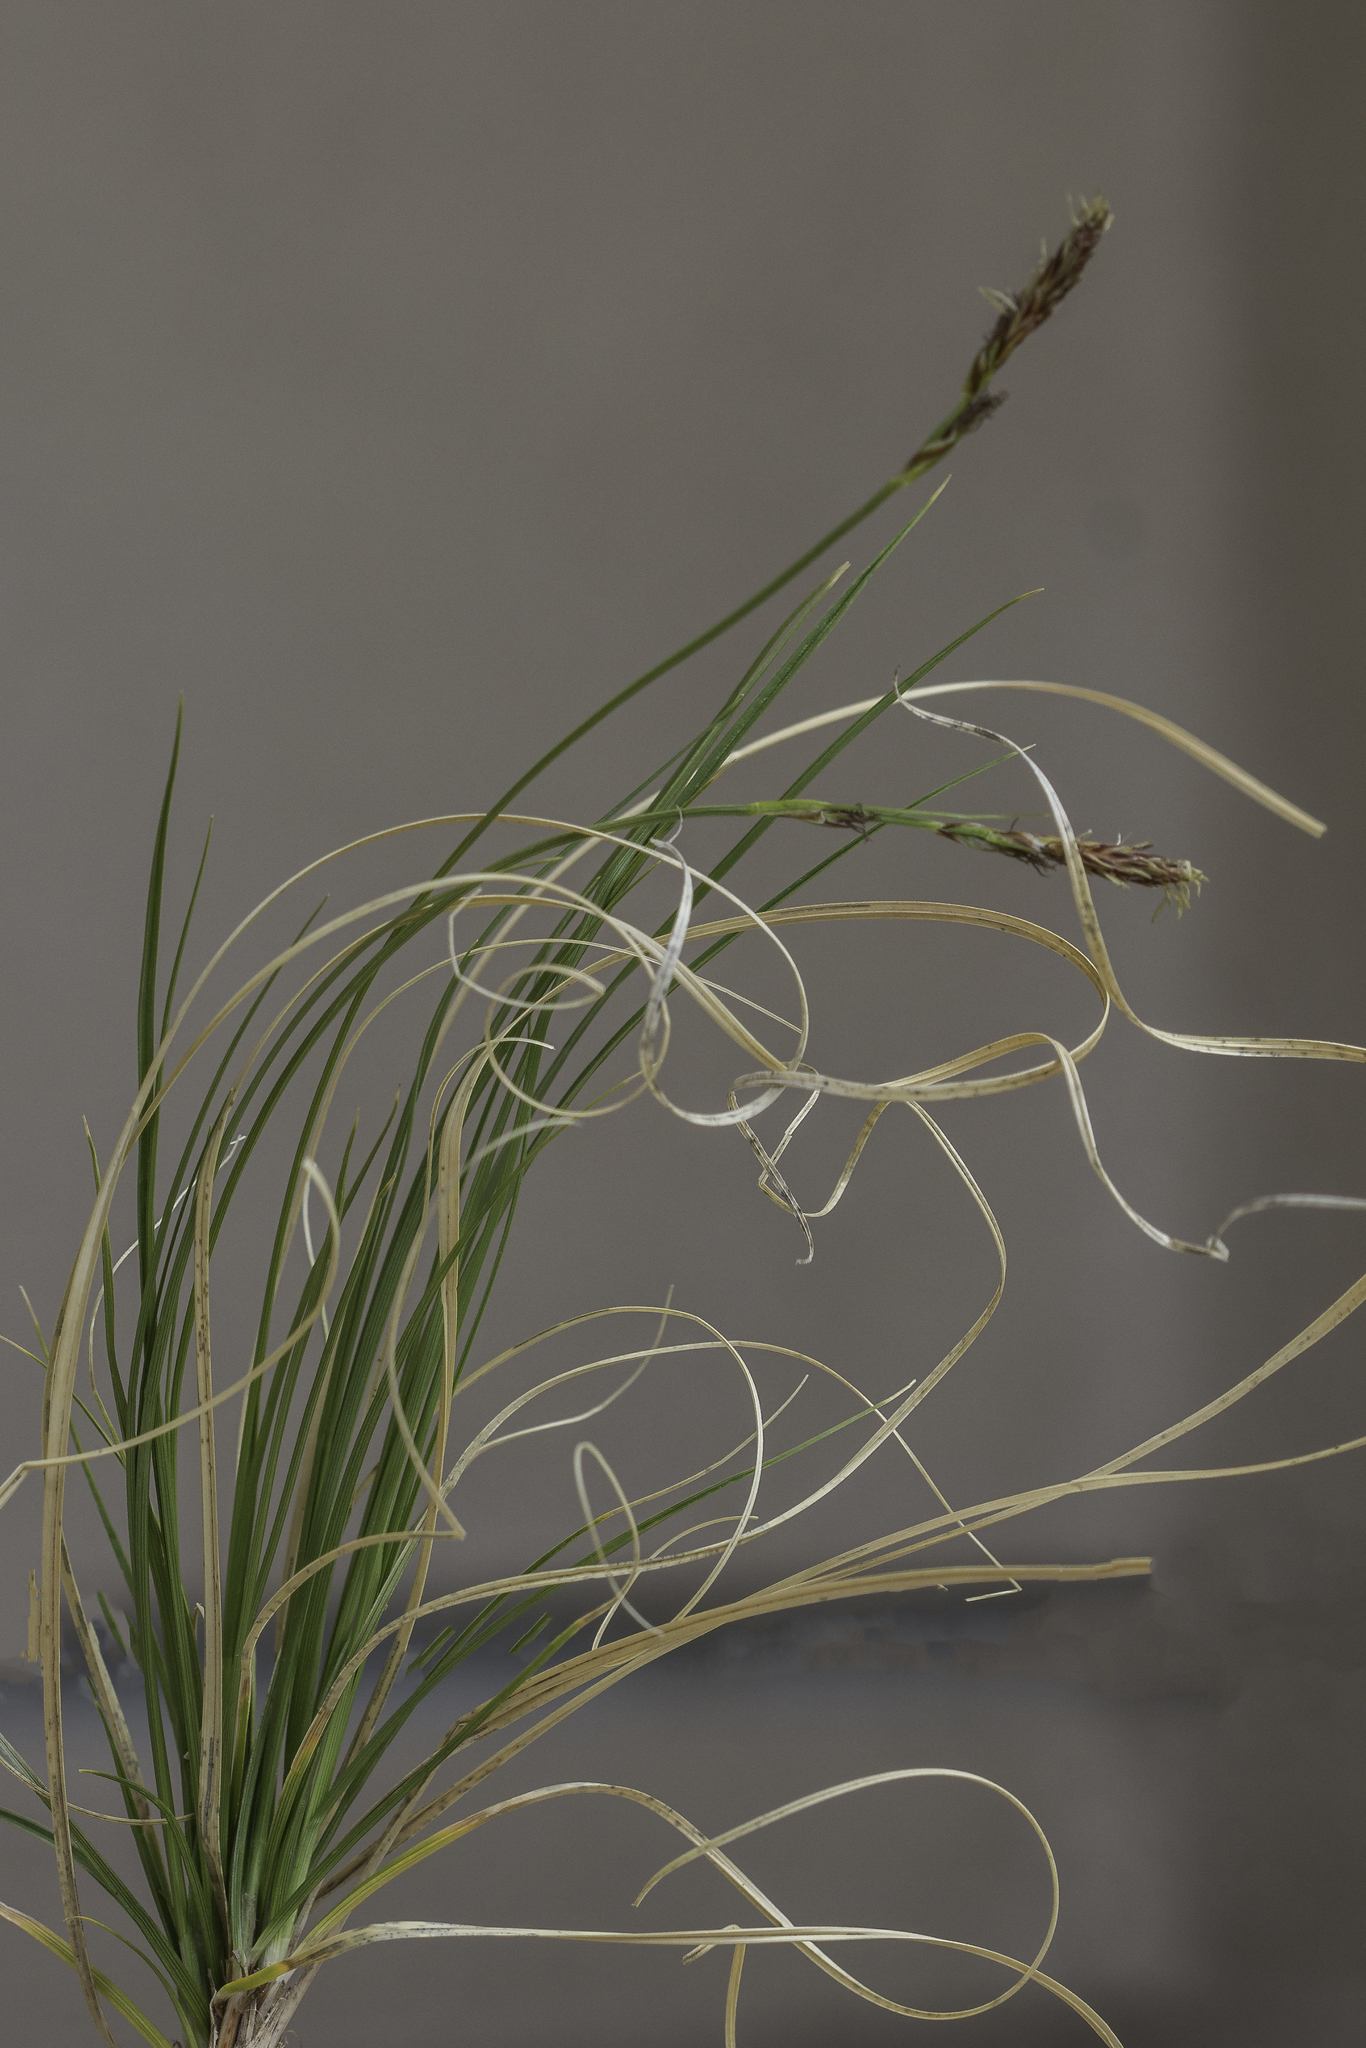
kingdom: Plantae
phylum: Tracheophyta
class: Liliopsida
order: Poales
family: Cyperaceae
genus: Carex
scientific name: Carex inops
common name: Long-stolon sedge
